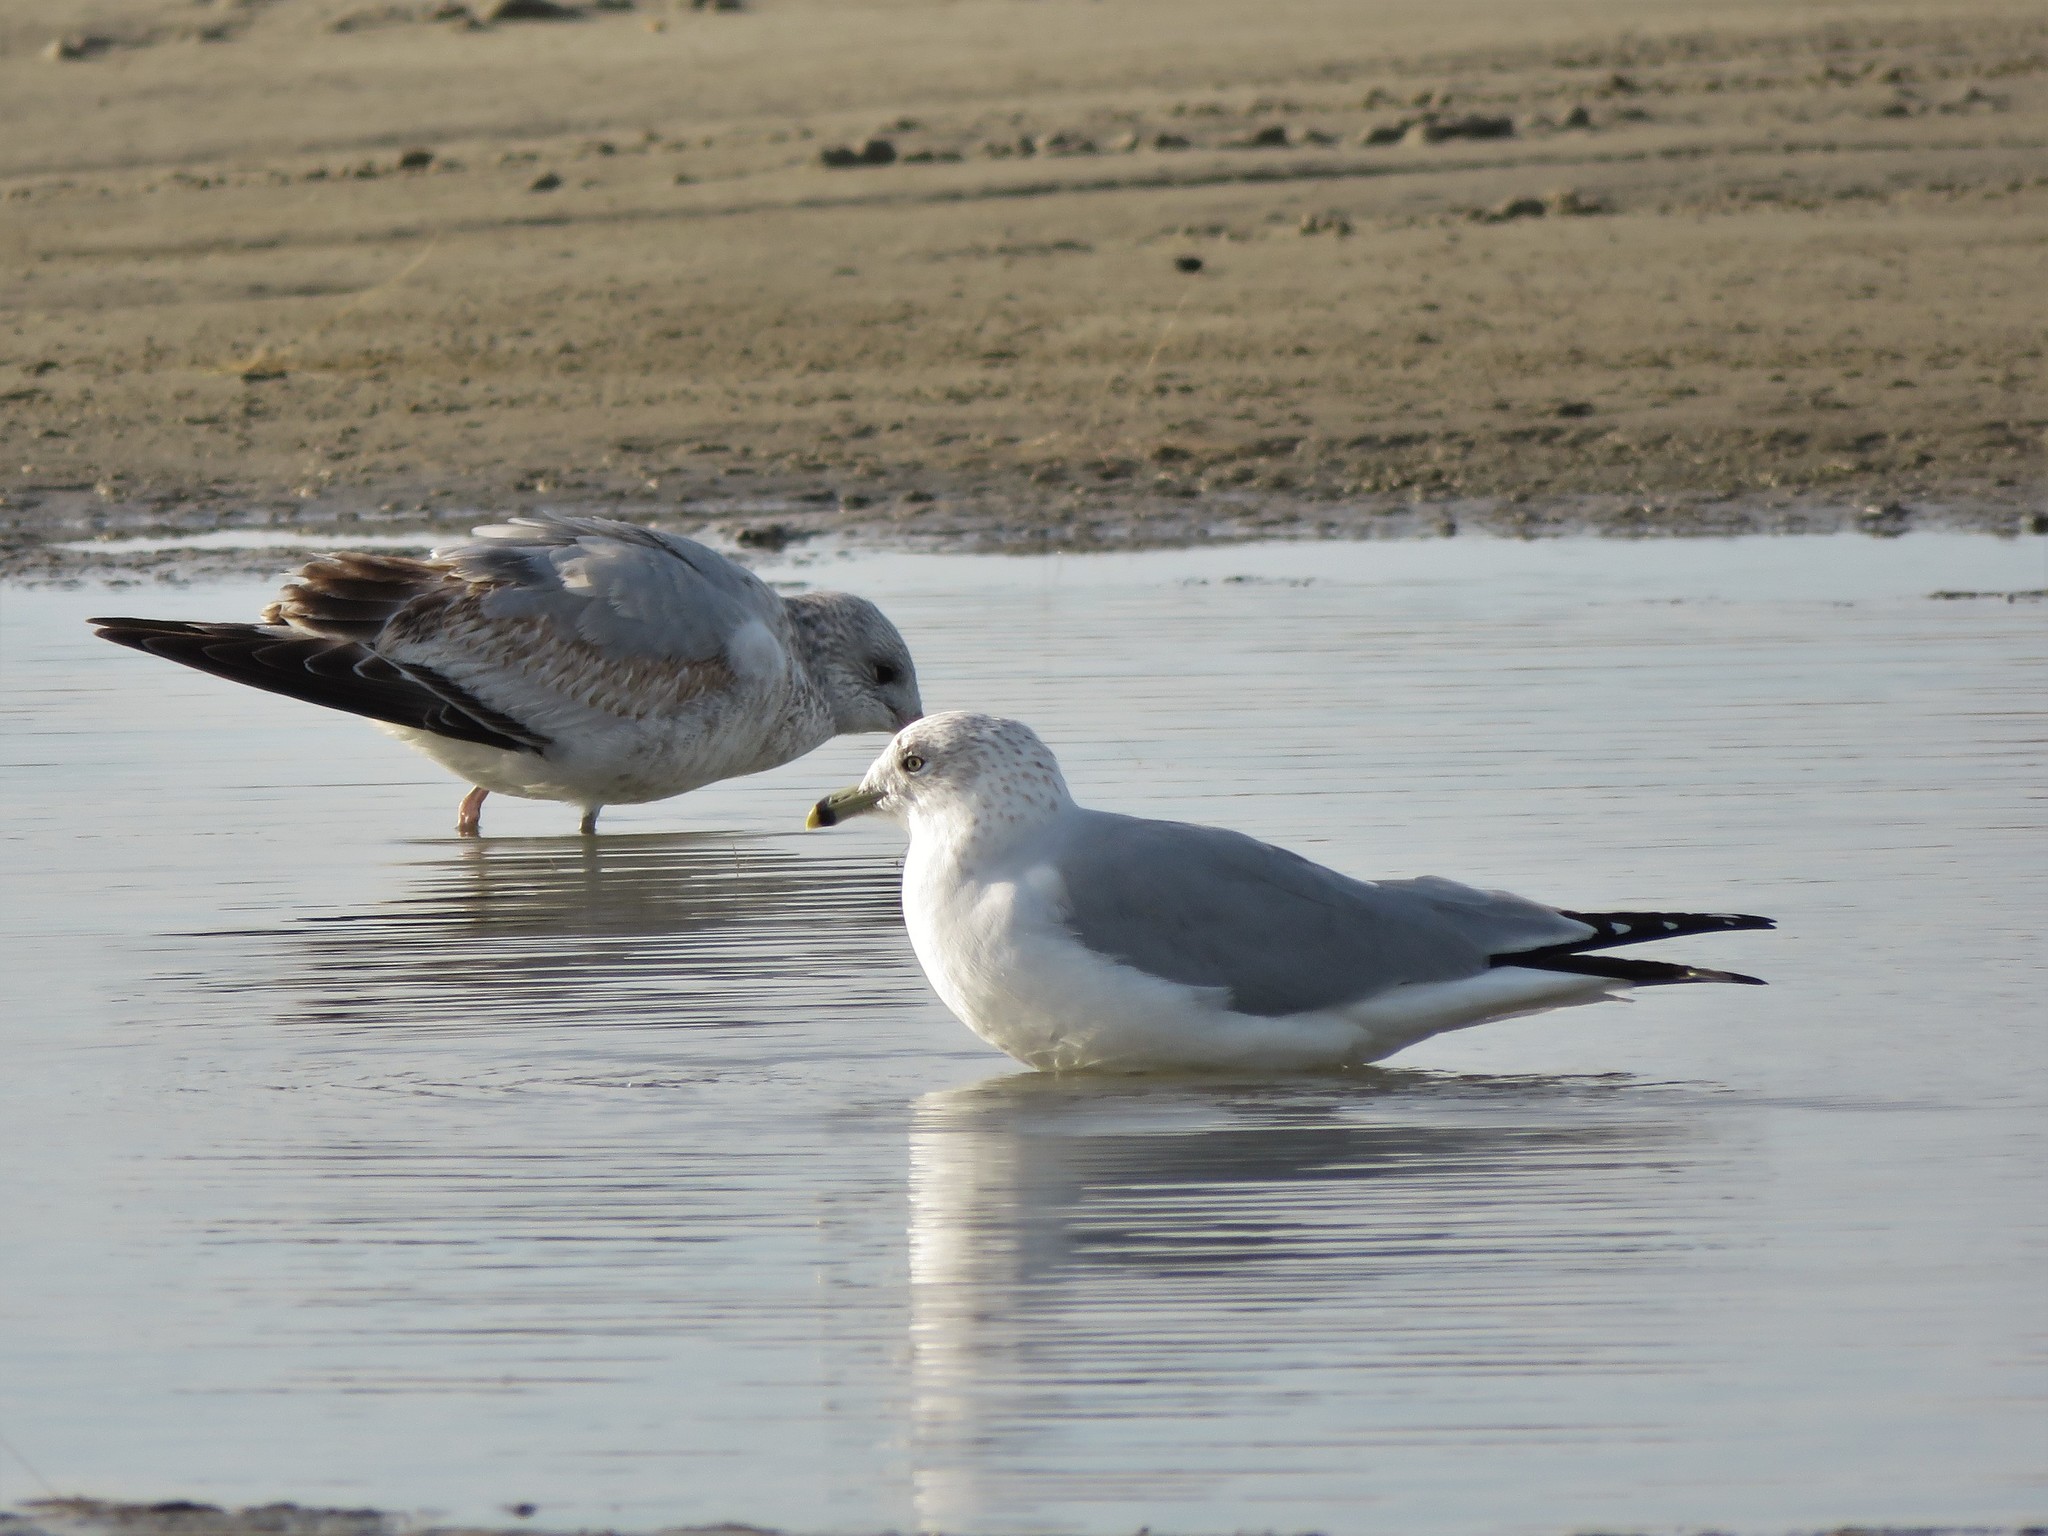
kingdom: Animalia
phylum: Chordata
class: Aves
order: Charadriiformes
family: Laridae
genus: Larus
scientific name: Larus delawarensis
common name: Ring-billed gull
